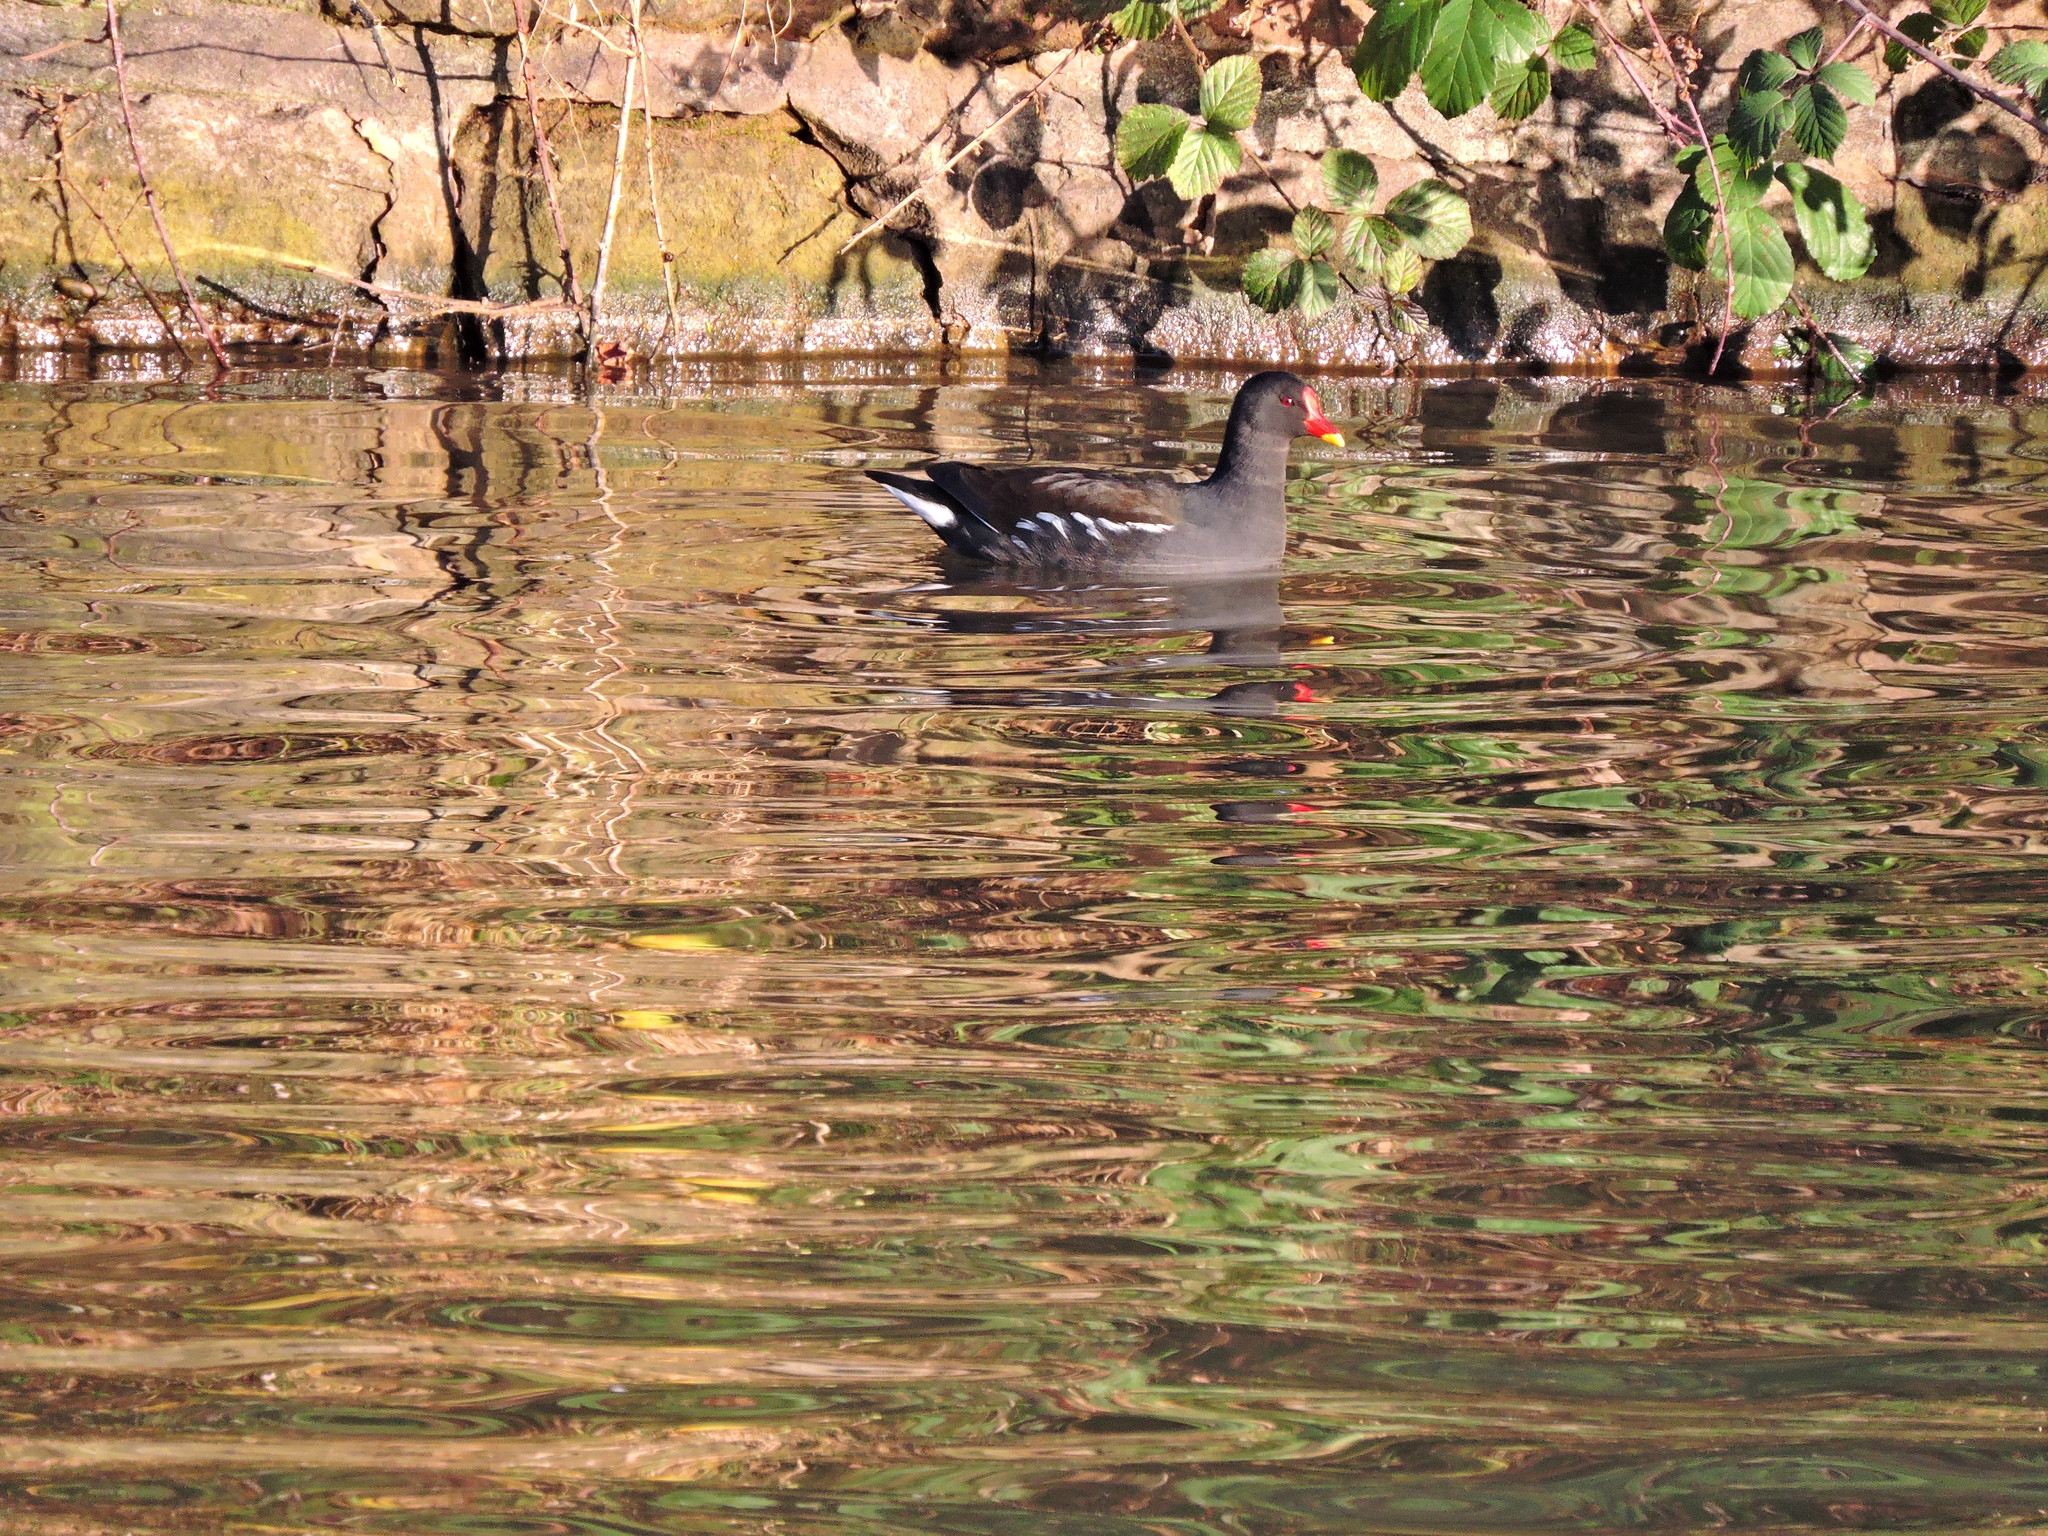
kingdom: Animalia
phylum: Chordata
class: Aves
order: Gruiformes
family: Rallidae
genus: Gallinula
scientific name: Gallinula chloropus
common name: Common moorhen
